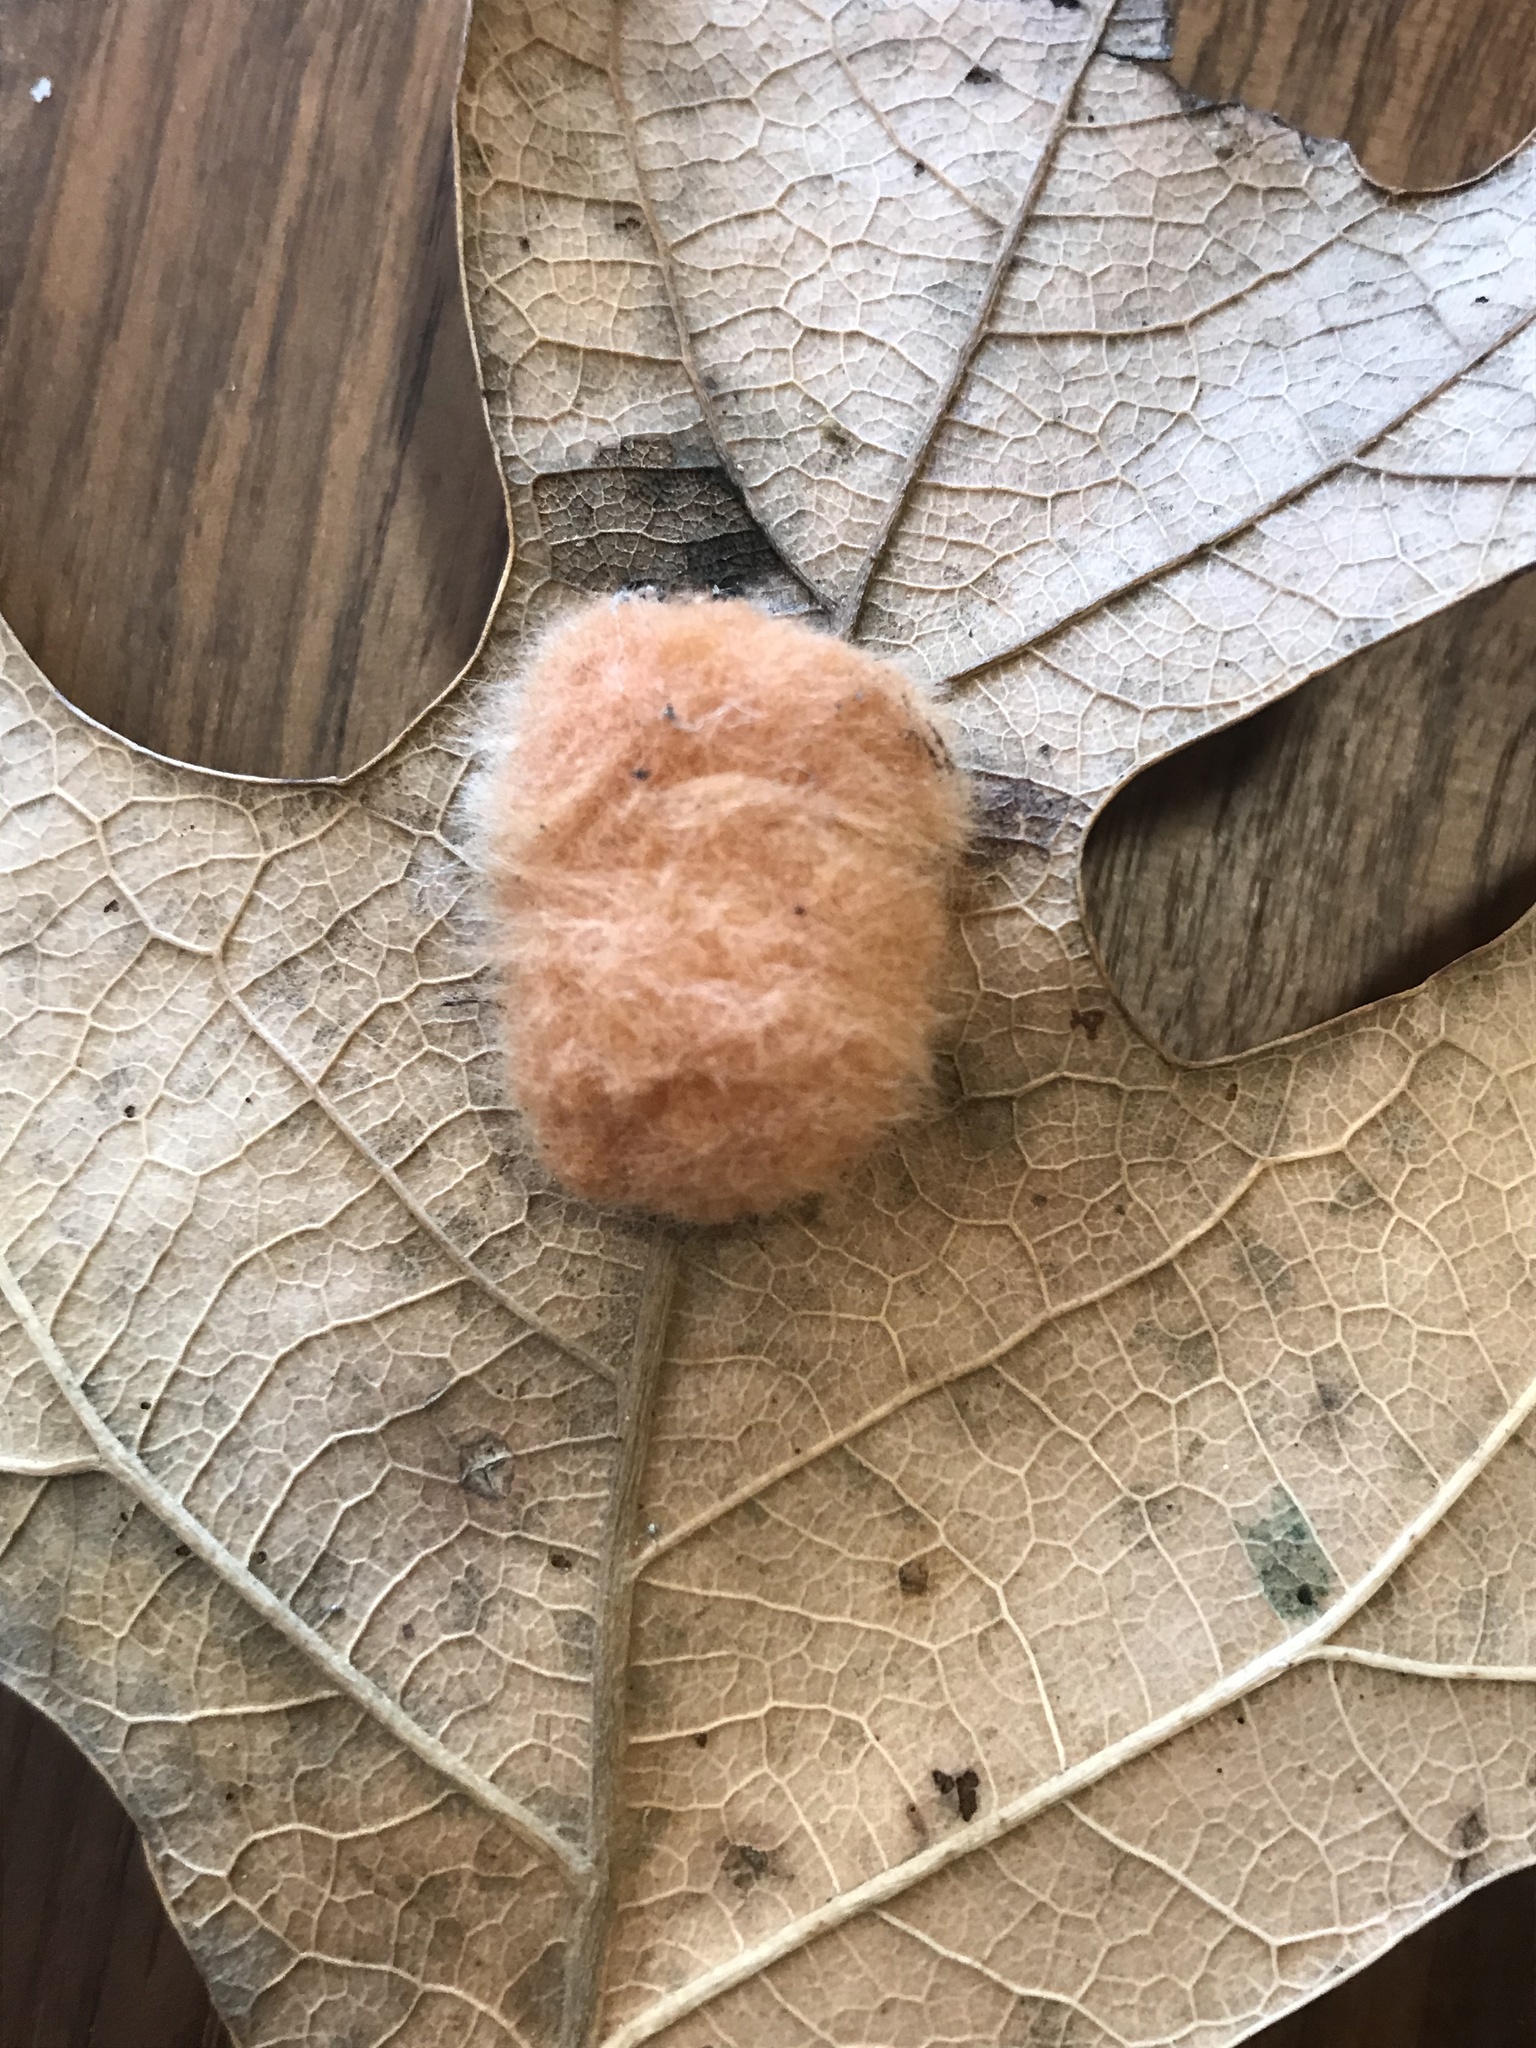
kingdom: Animalia
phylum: Arthropoda
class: Insecta
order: Hymenoptera
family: Cynipidae
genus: Andricus
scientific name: Andricus Druon pattoni
